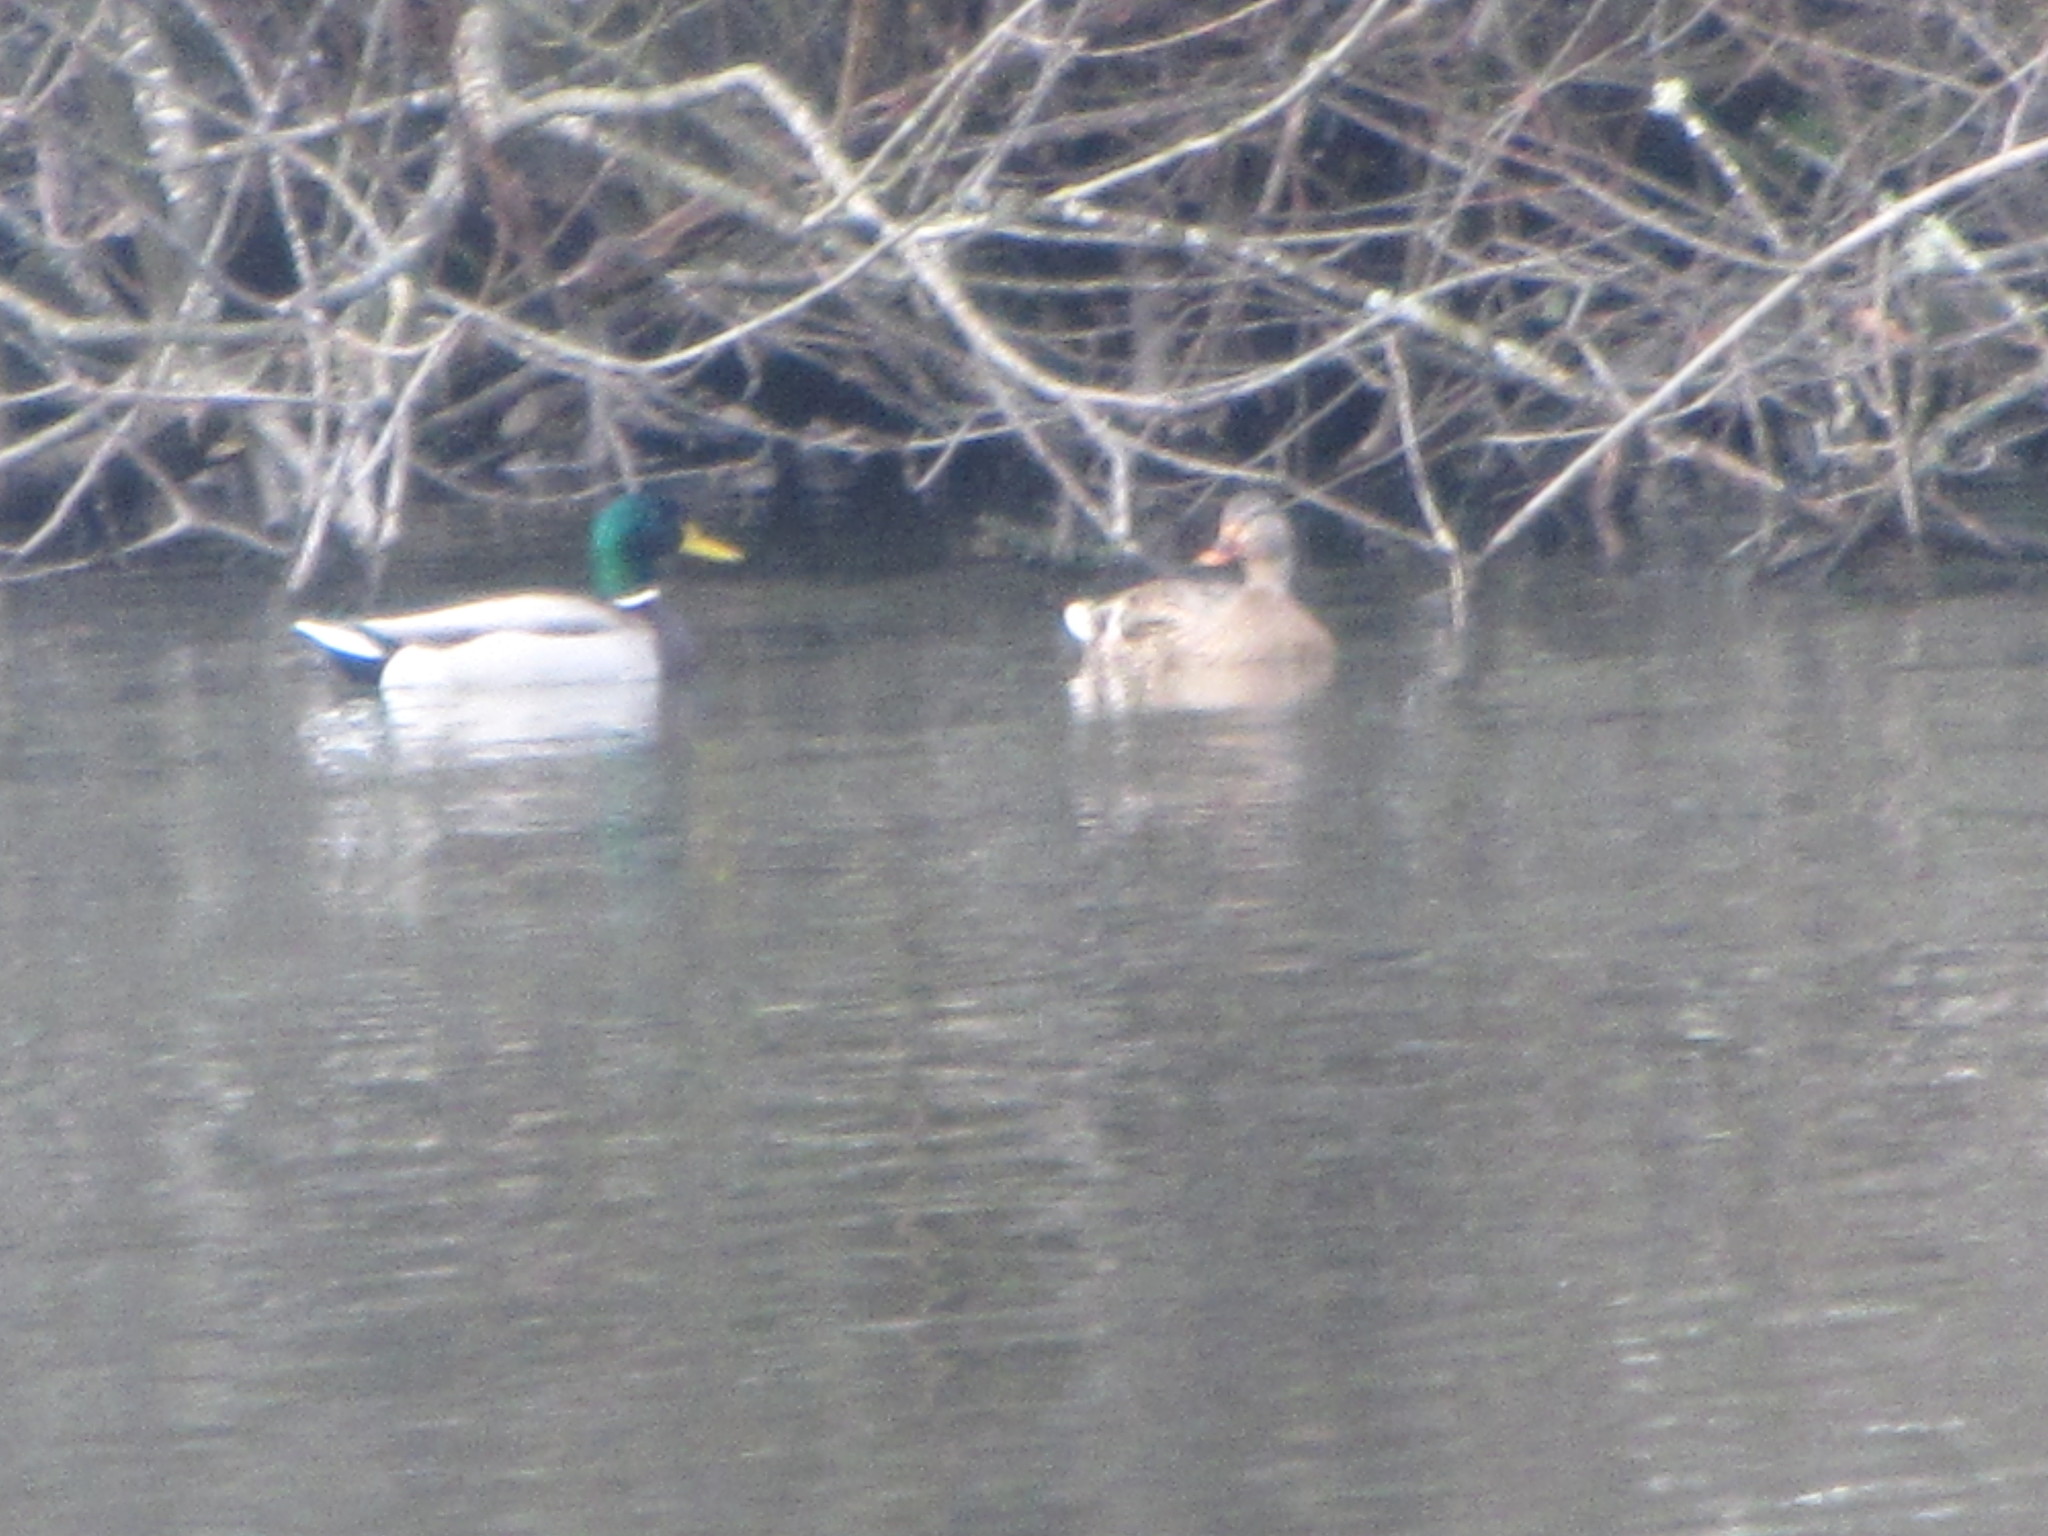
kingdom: Animalia
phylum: Chordata
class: Aves
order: Anseriformes
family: Anatidae
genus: Anas
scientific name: Anas platyrhynchos
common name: Mallard
